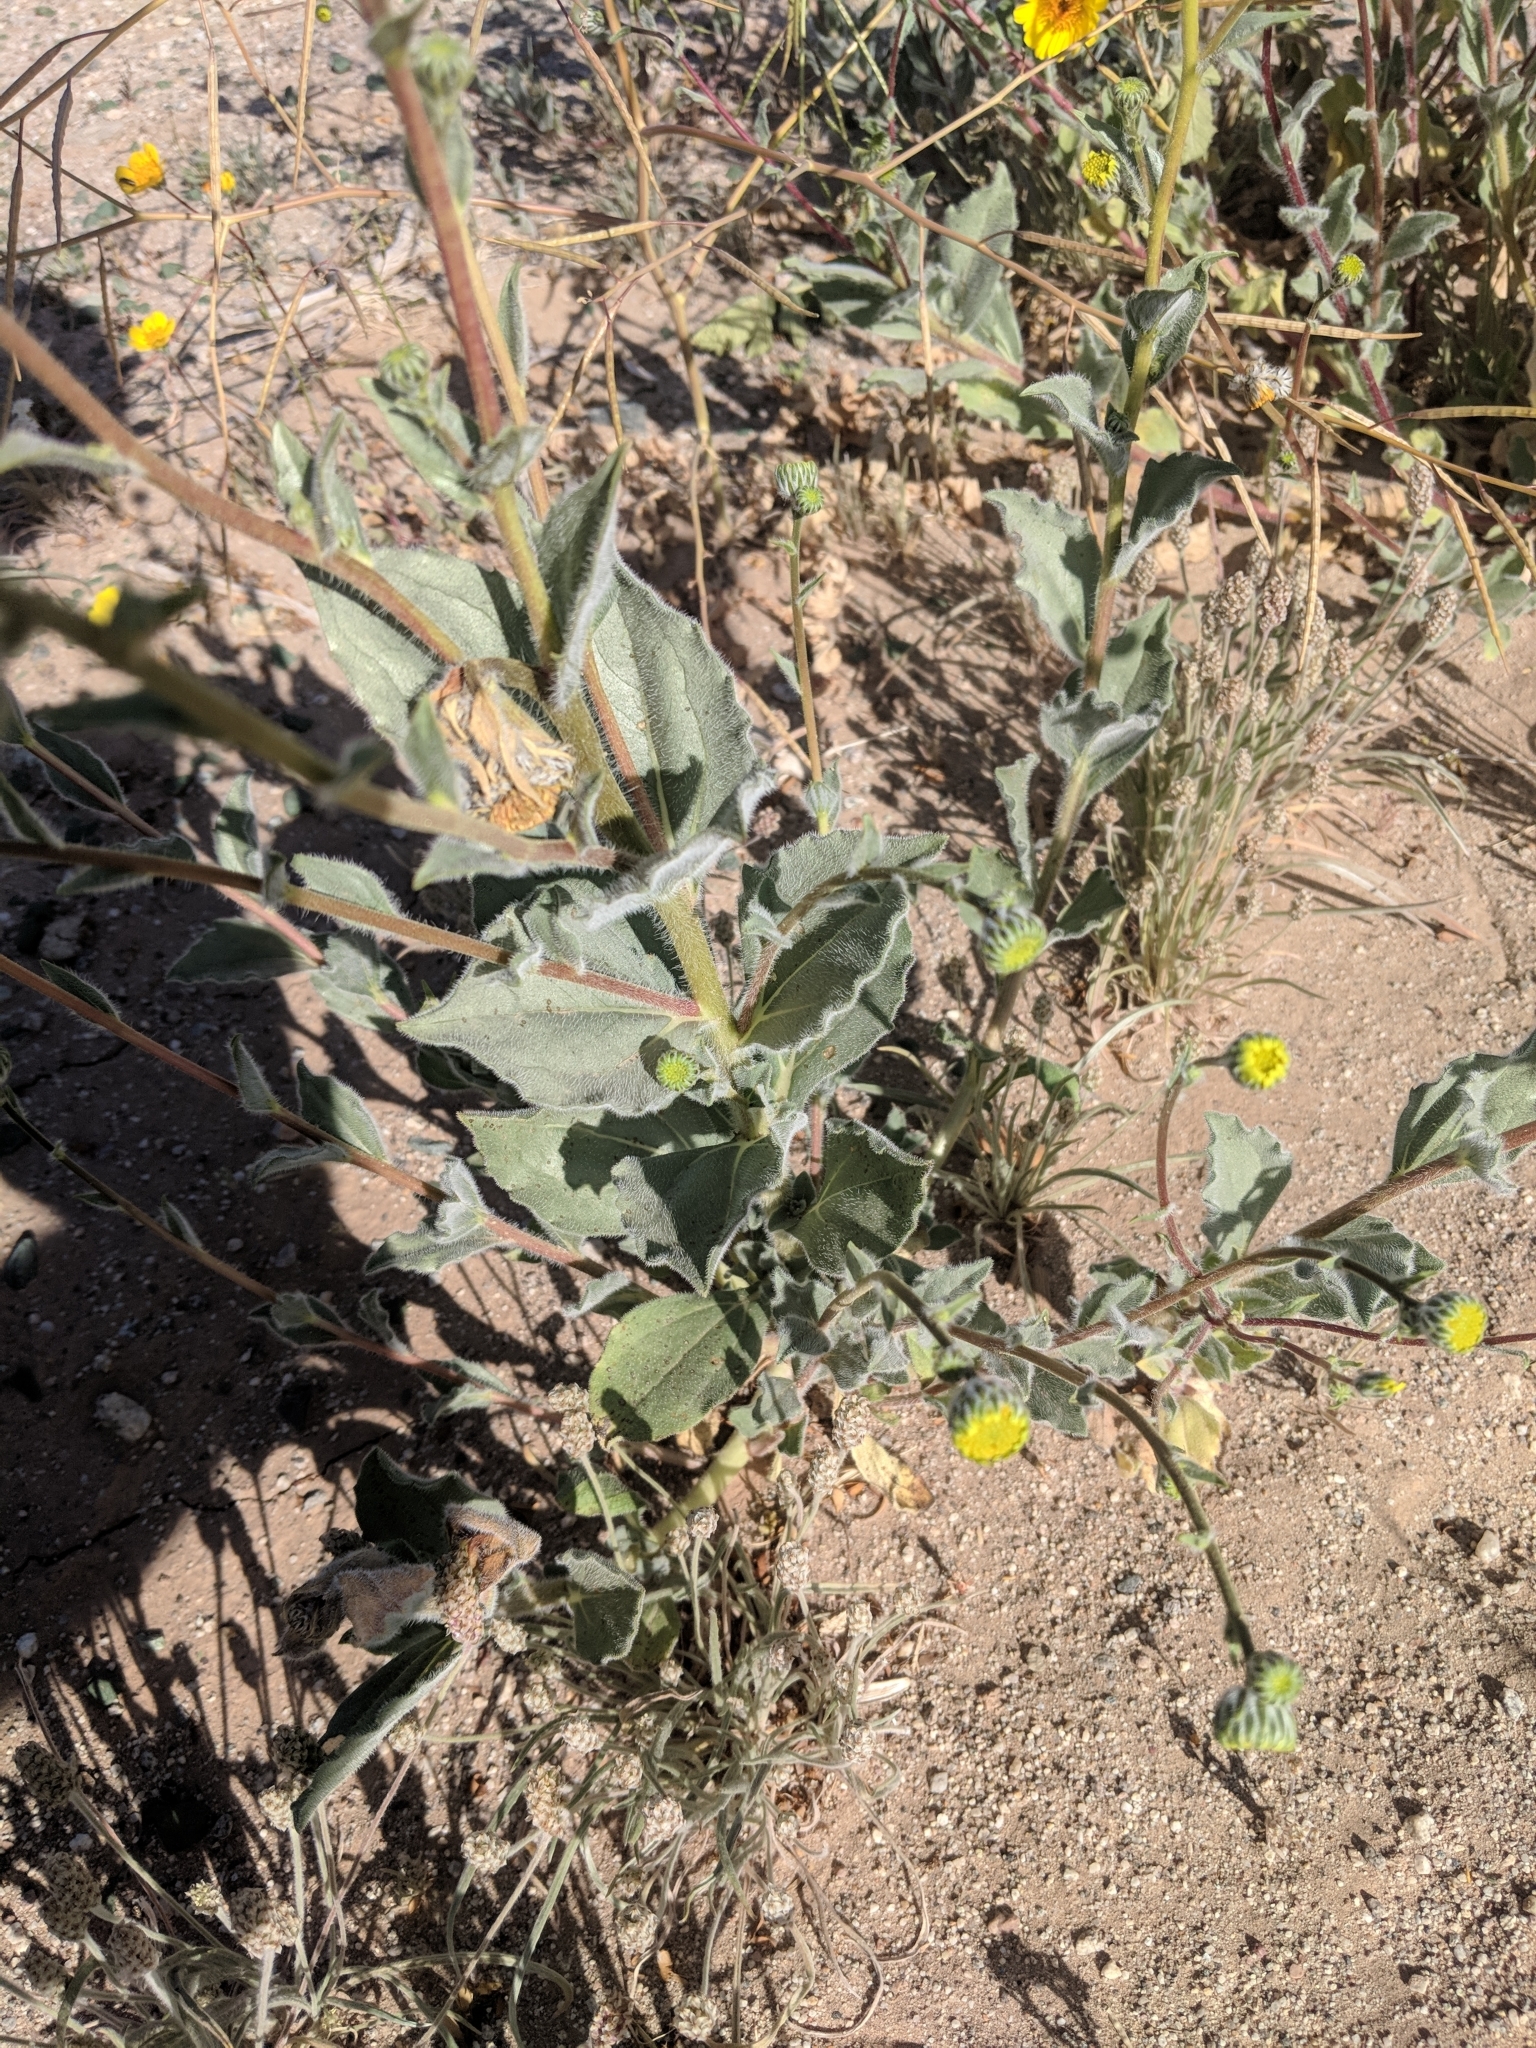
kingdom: Plantae
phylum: Tracheophyta
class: Magnoliopsida
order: Asterales
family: Asteraceae
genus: Geraea
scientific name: Geraea canescens
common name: Desert-gold
